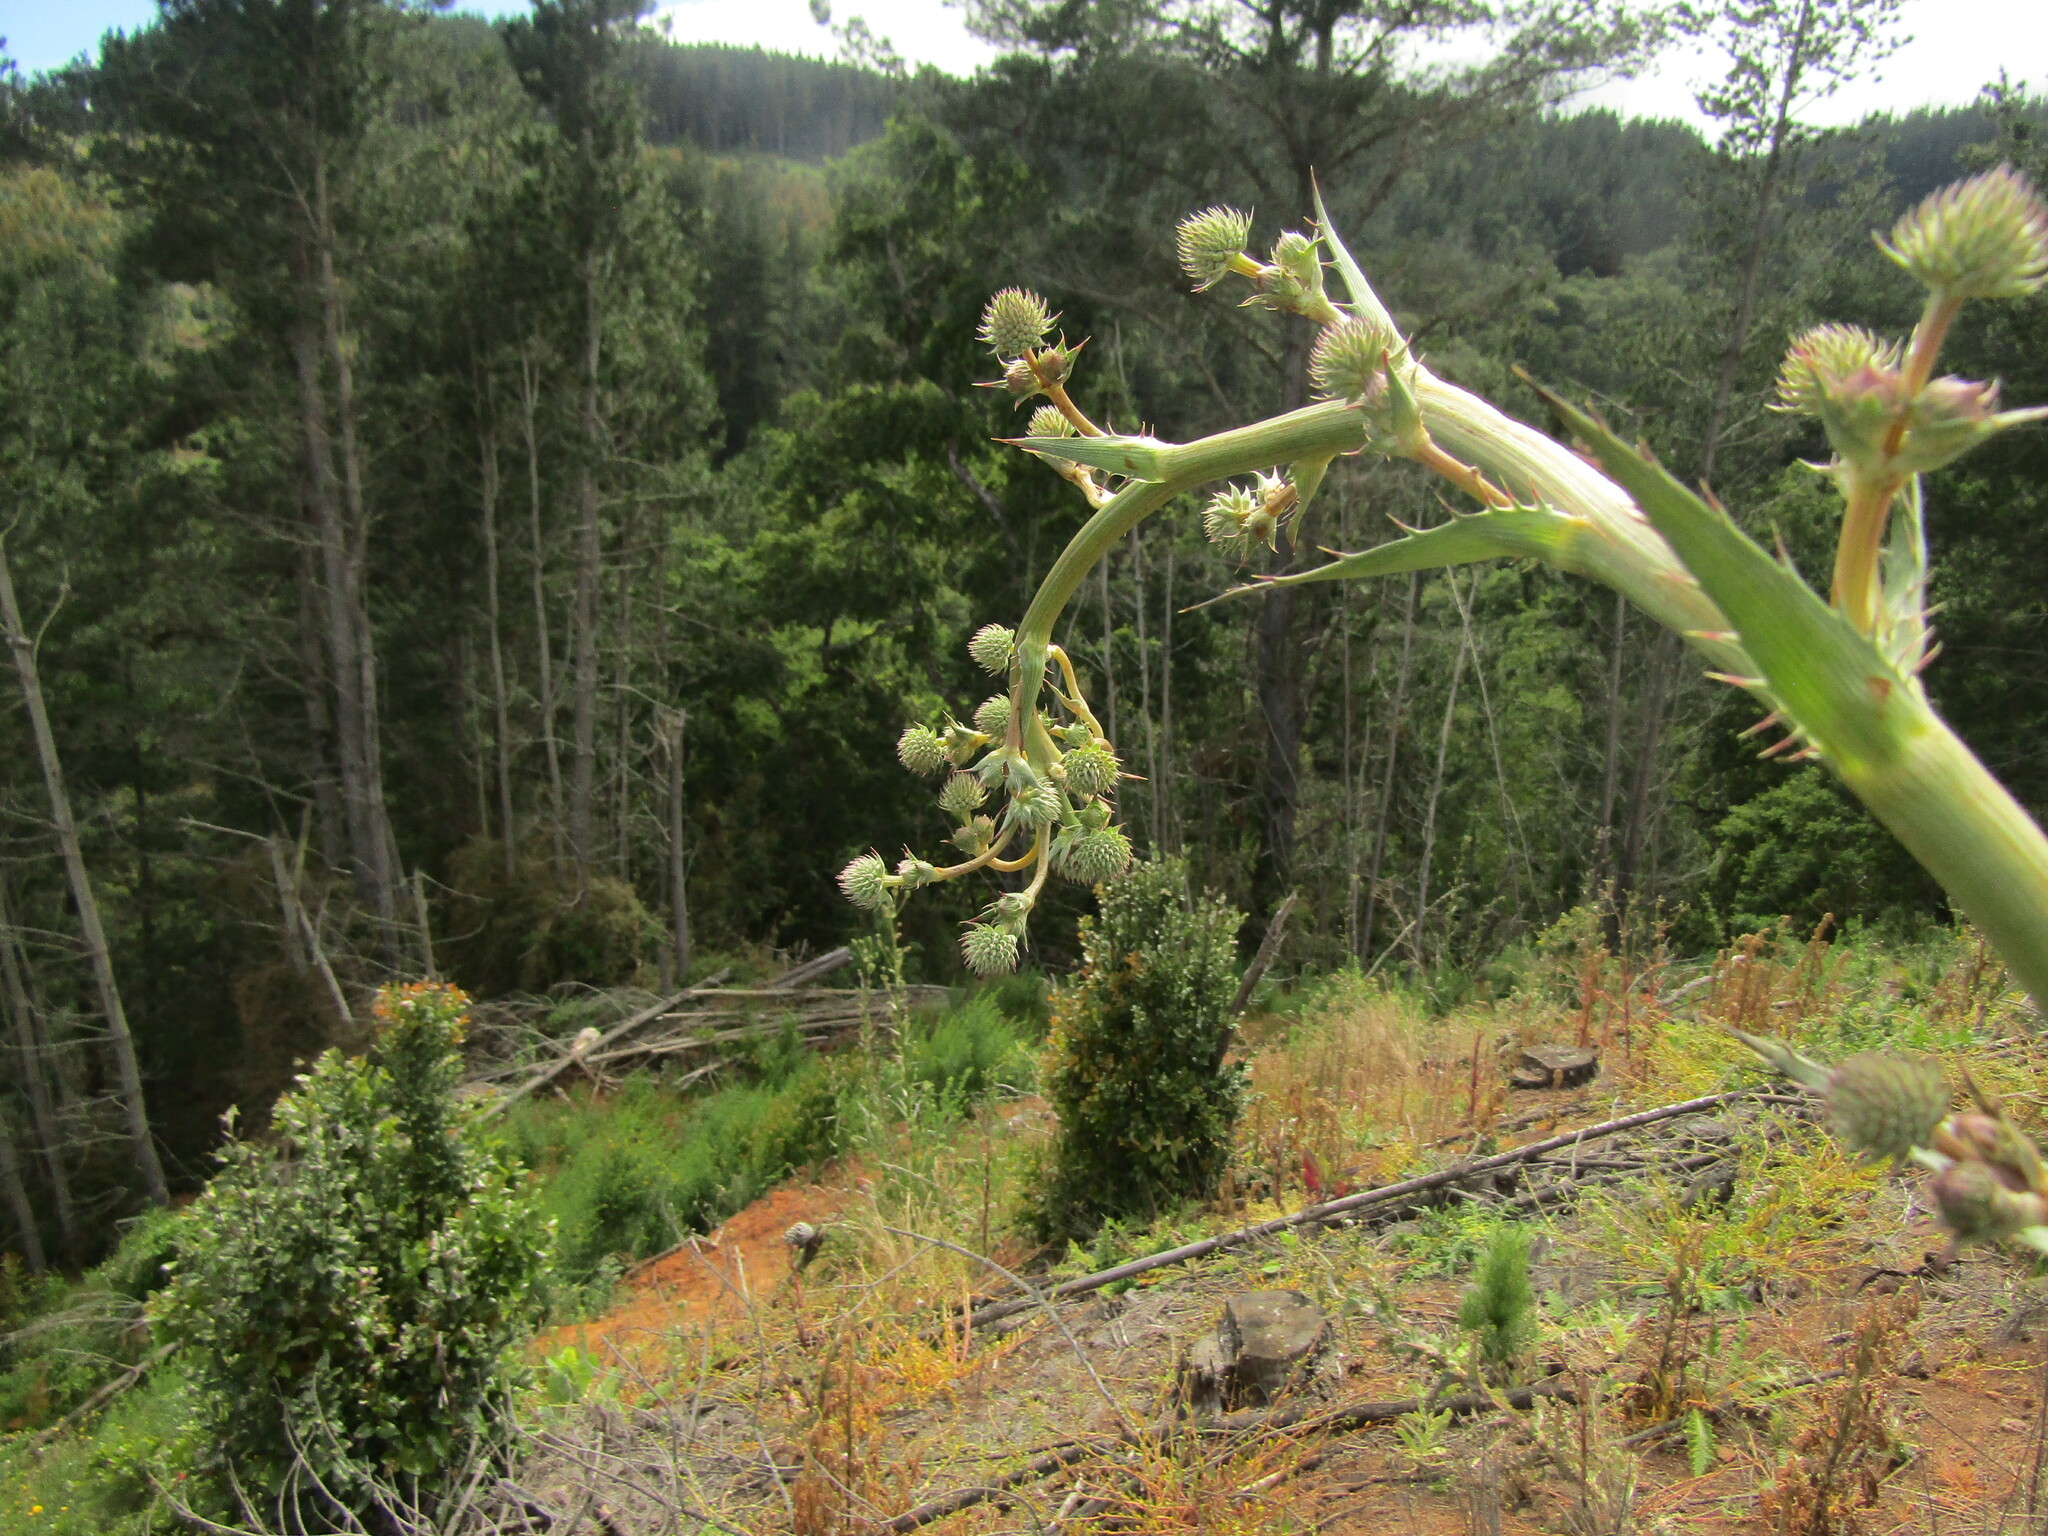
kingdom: Plantae
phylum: Tracheophyta
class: Magnoliopsida
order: Apiales
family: Apiaceae
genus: Eryngium
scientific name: Eryngium humboldtii
